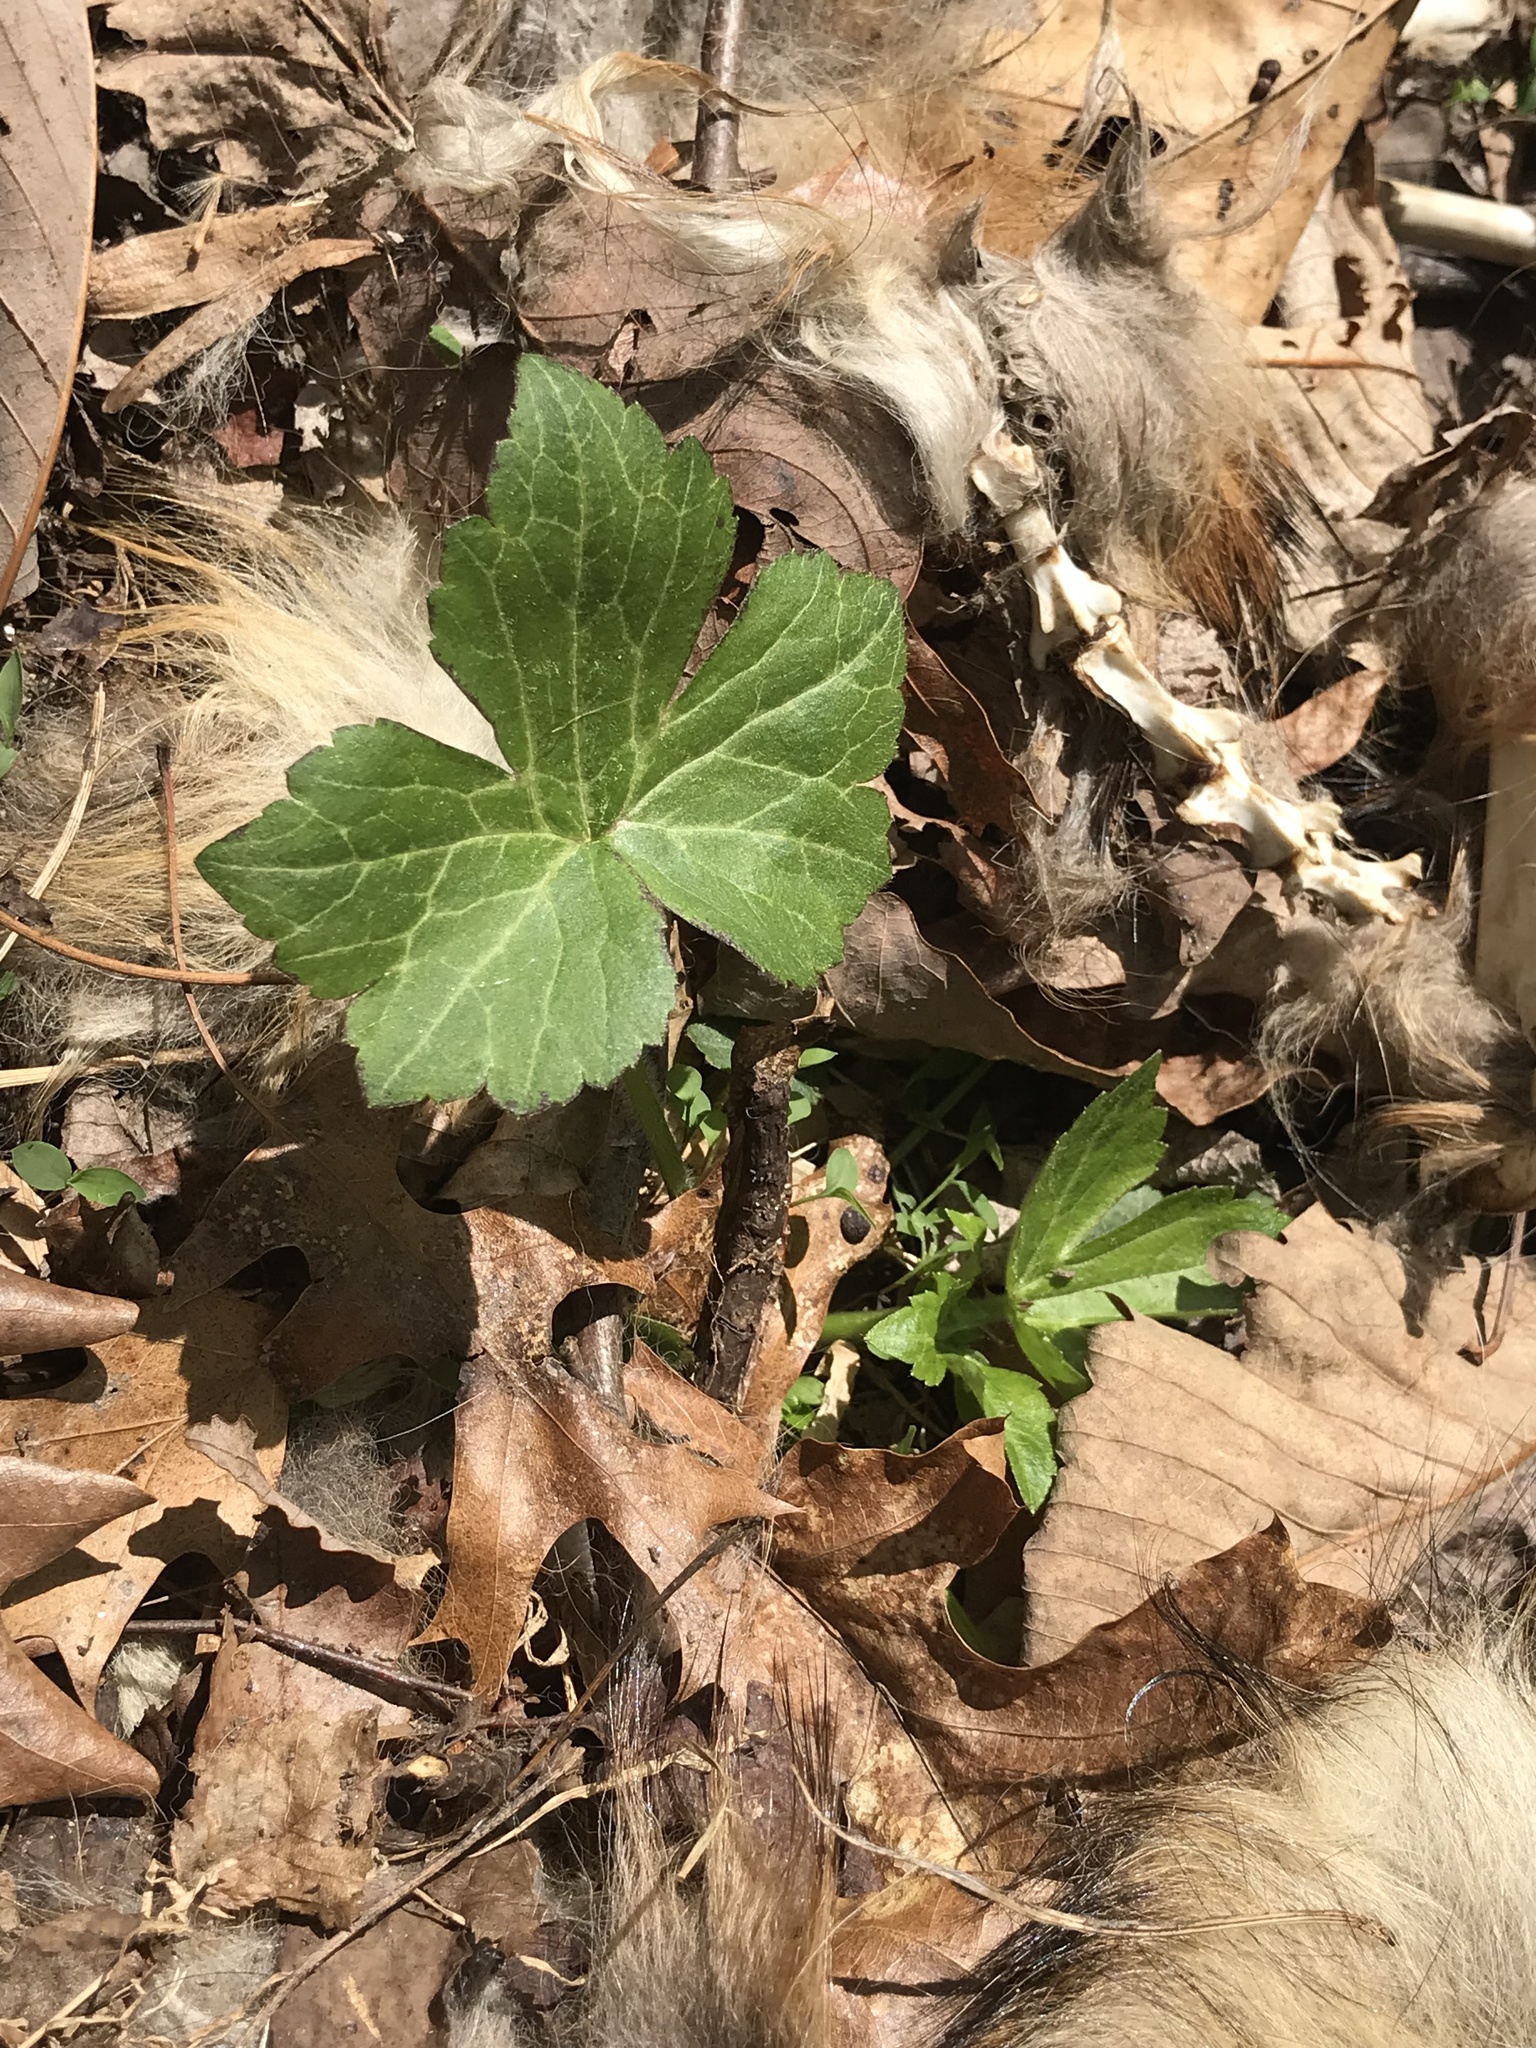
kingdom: Plantae
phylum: Tracheophyta
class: Magnoliopsida
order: Ranunculales
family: Ranunculaceae
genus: Ranunculus
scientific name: Ranunculus recurvatus
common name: Blisterwort
